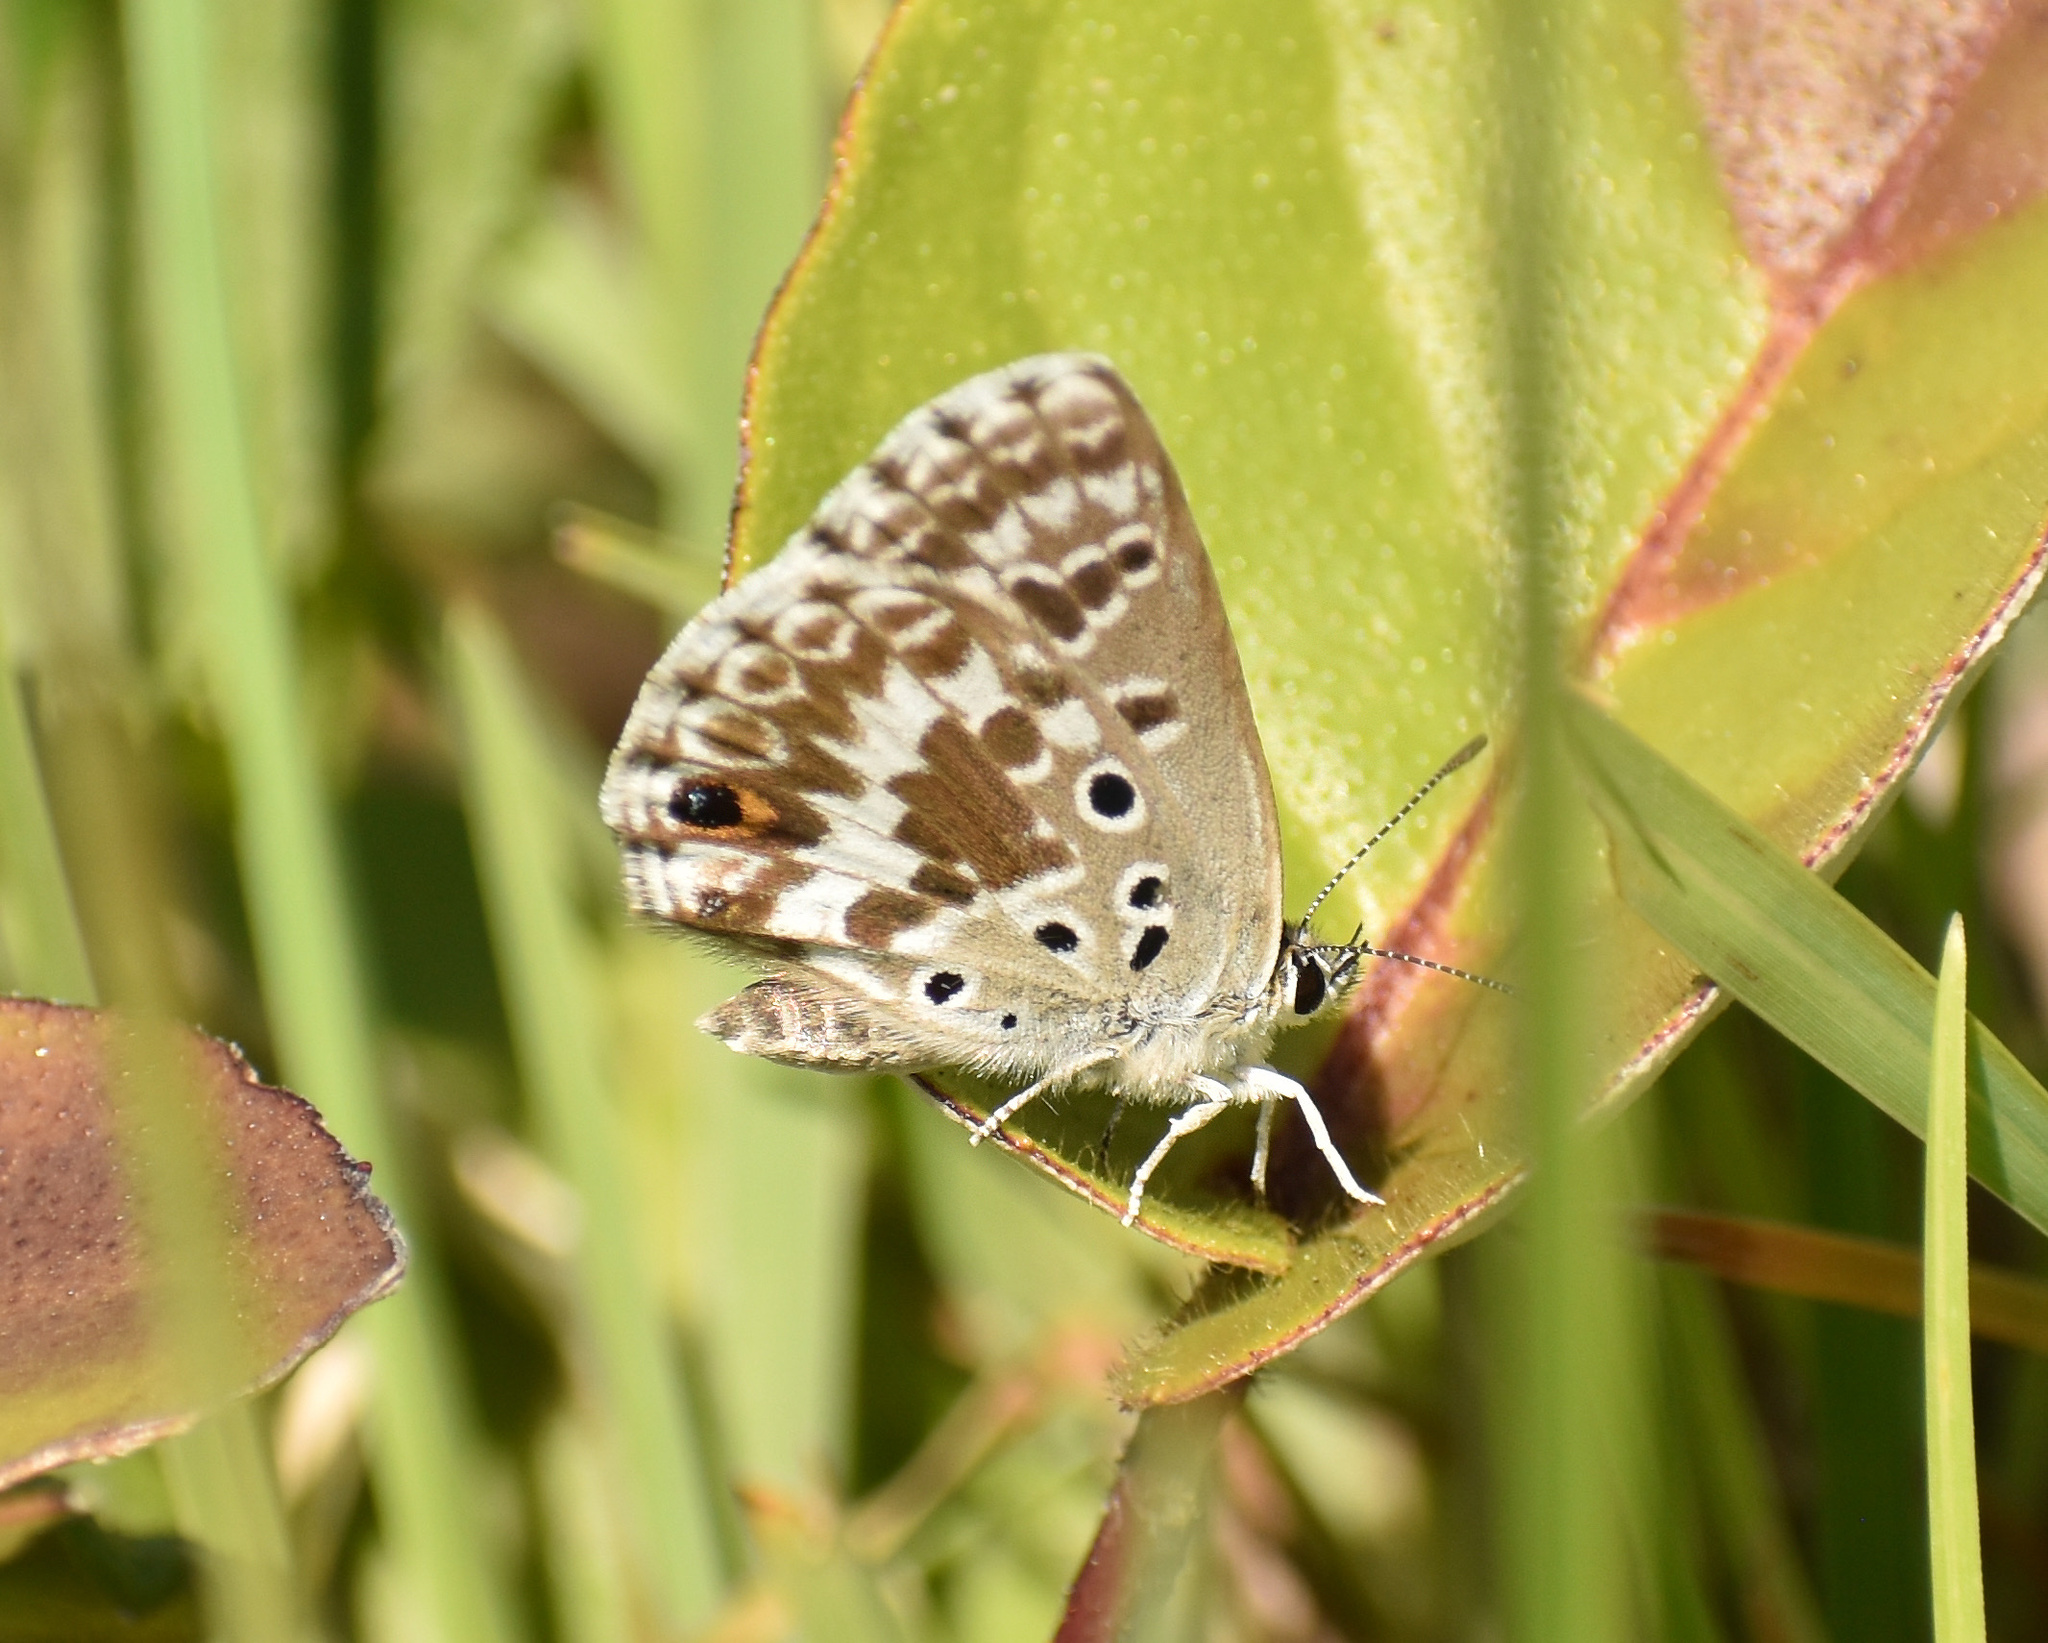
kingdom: Animalia
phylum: Arthropoda
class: Insecta
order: Lepidoptera
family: Lycaenidae
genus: Lepidochrysops
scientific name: Lepidochrysops ketsi
